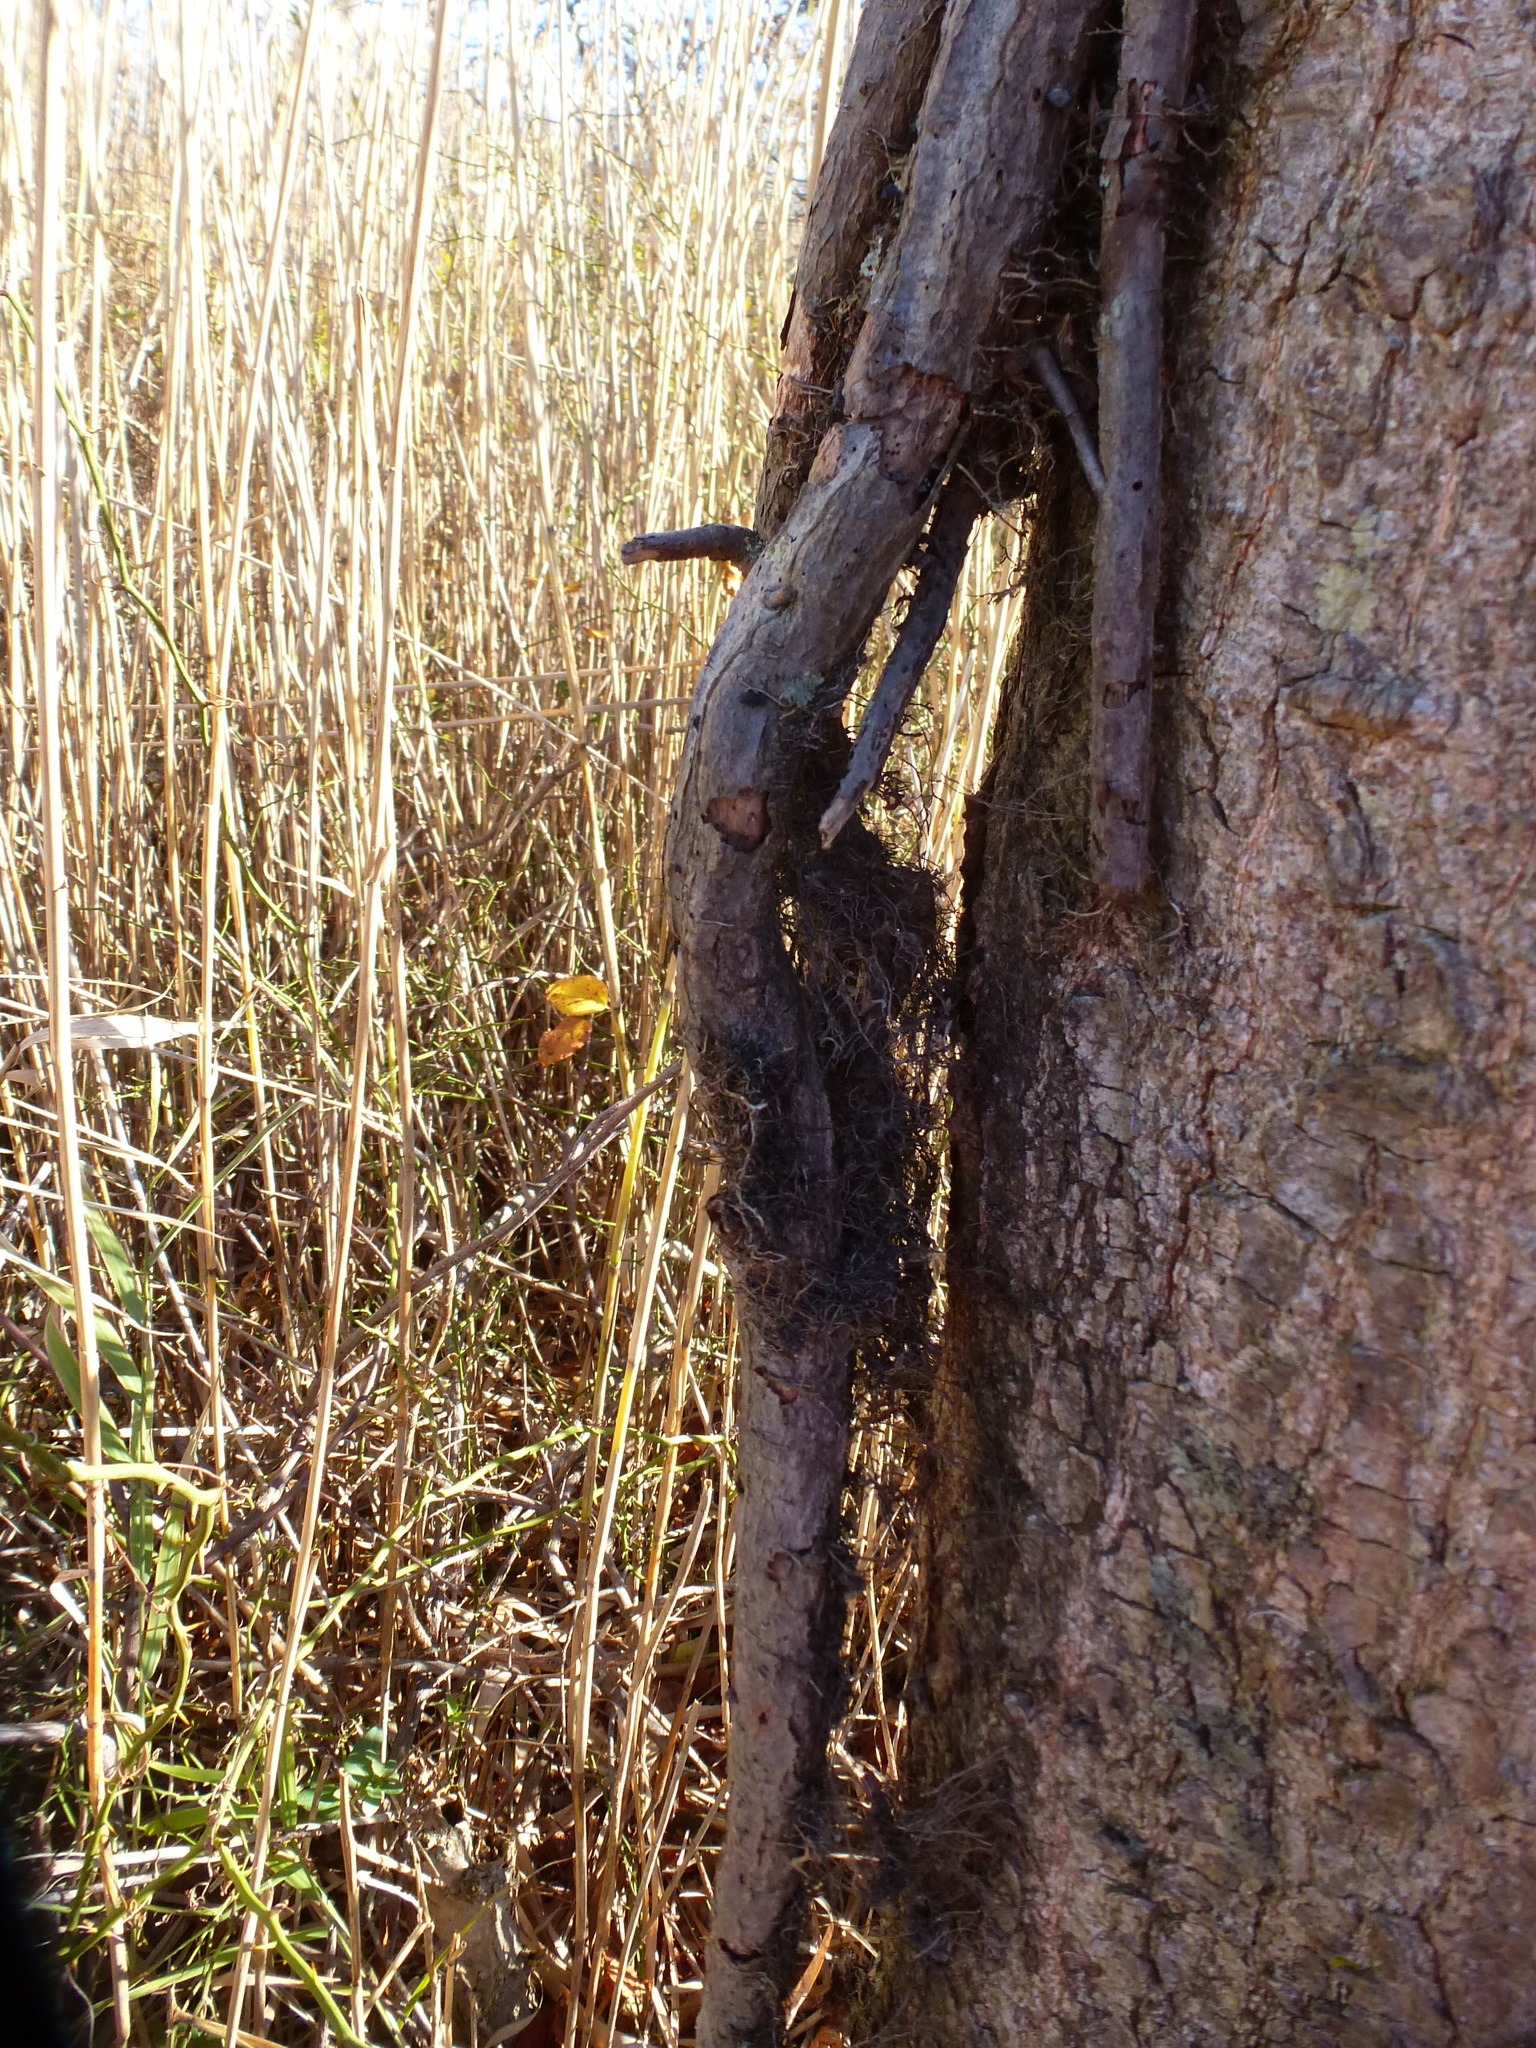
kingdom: Plantae
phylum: Tracheophyta
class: Magnoliopsida
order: Sapindales
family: Anacardiaceae
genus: Toxicodendron
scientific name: Toxicodendron radicans
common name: Poison ivy
